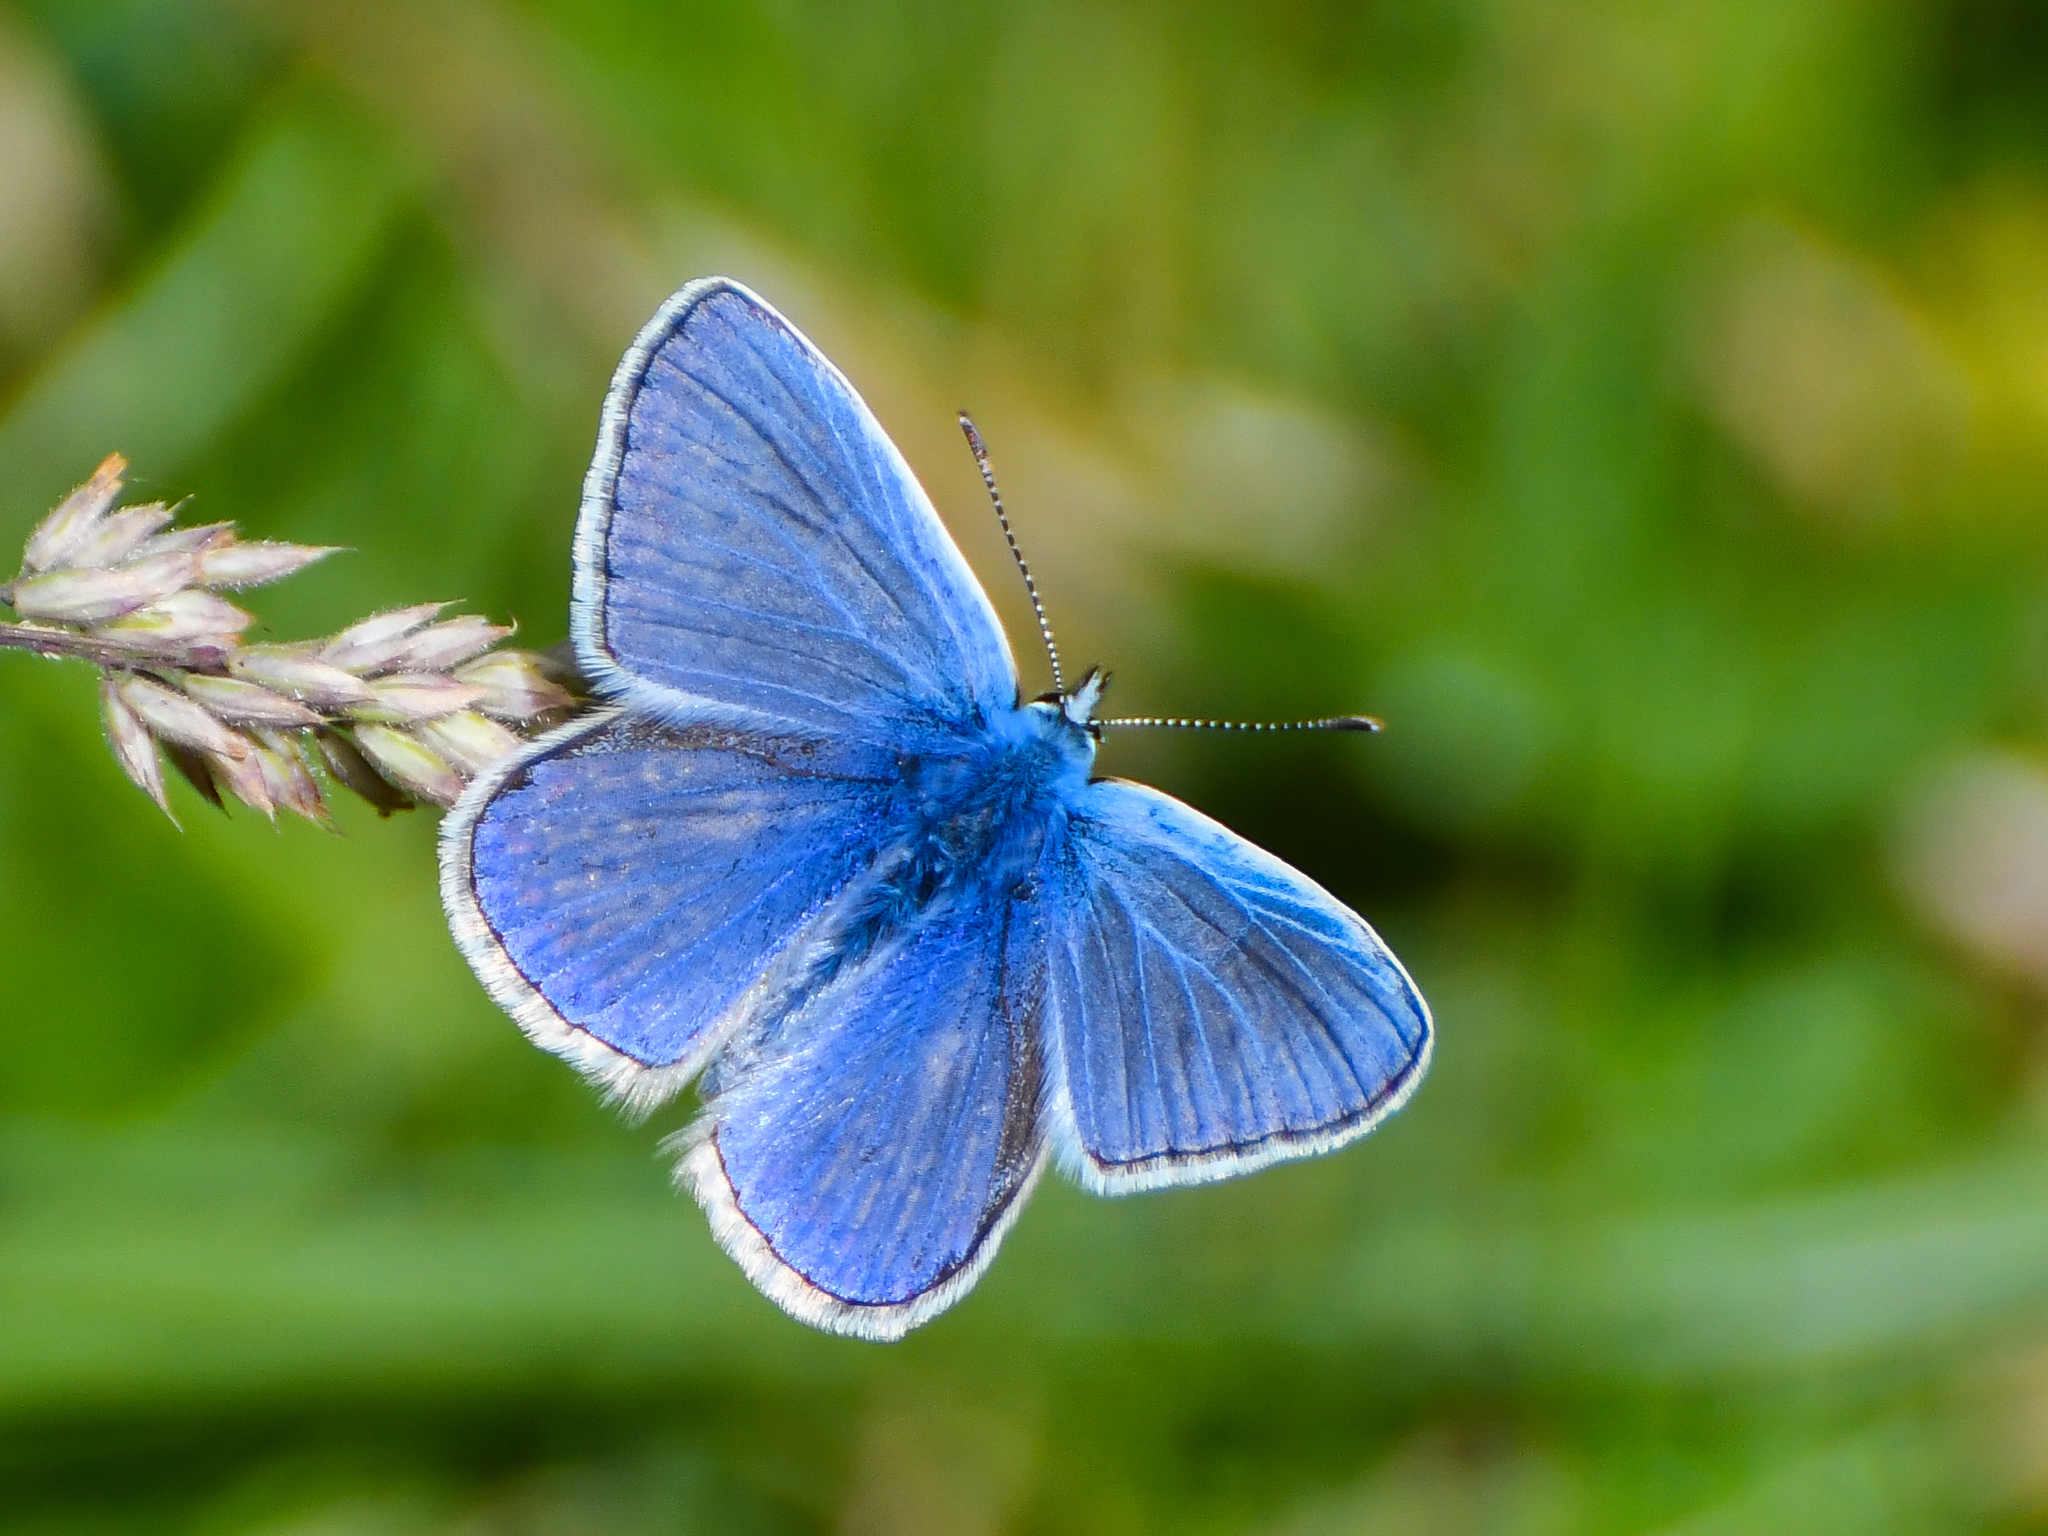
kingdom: Animalia
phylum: Arthropoda
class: Insecta
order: Lepidoptera
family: Lycaenidae
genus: Polyommatus
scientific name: Polyommatus icarus
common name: Common blue
